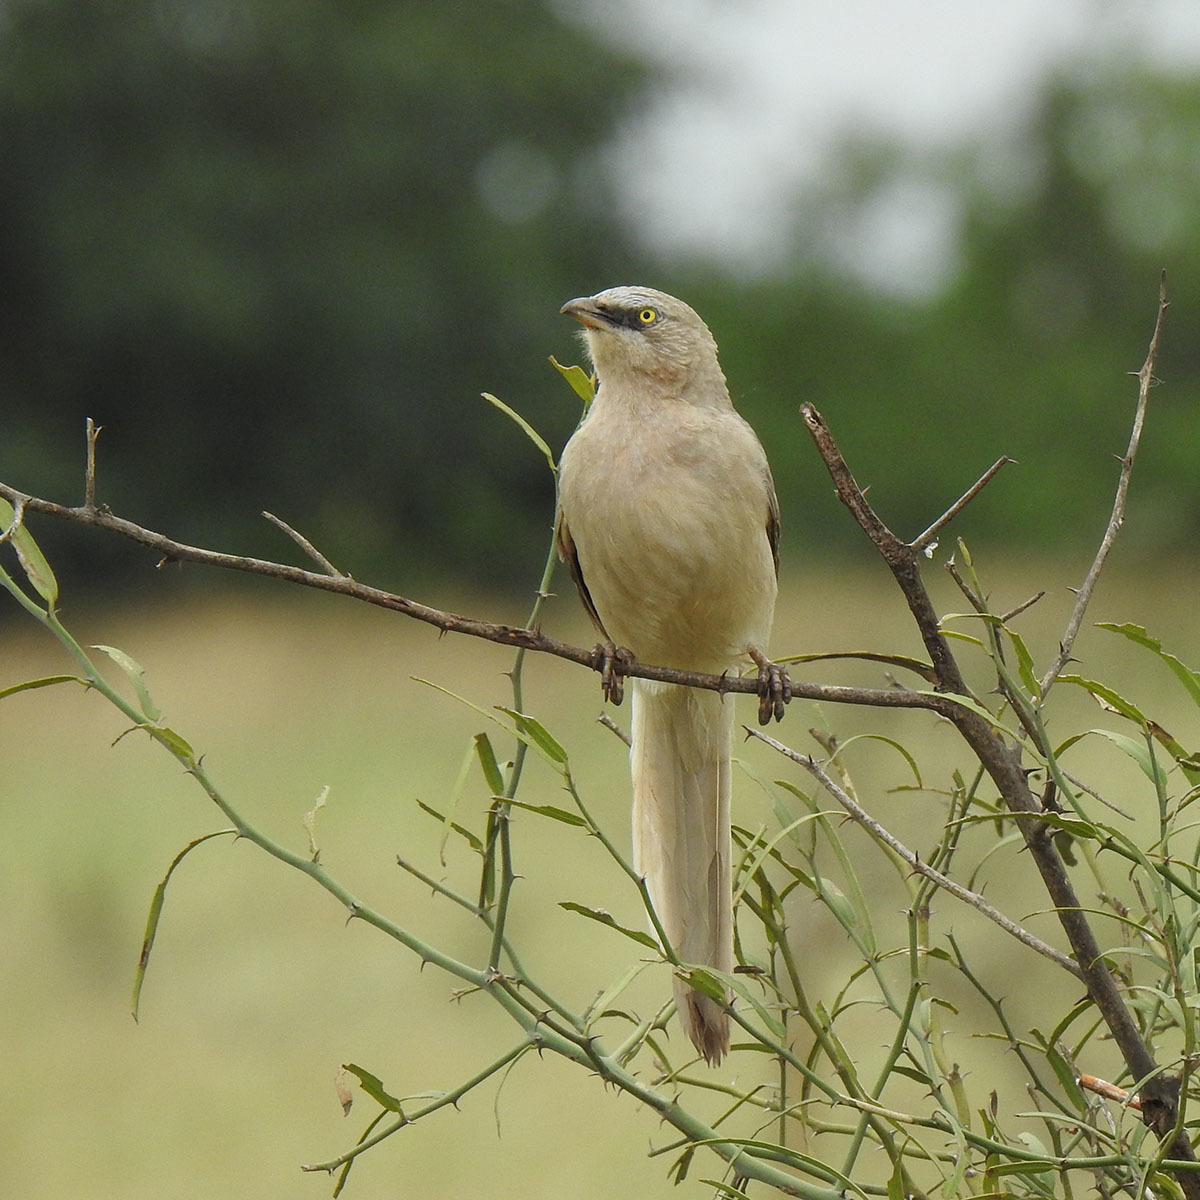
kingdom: Animalia
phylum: Chordata
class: Aves
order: Passeriformes
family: Leiothrichidae
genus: Turdoides
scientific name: Turdoides malcolmi
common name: Large grey babbler
